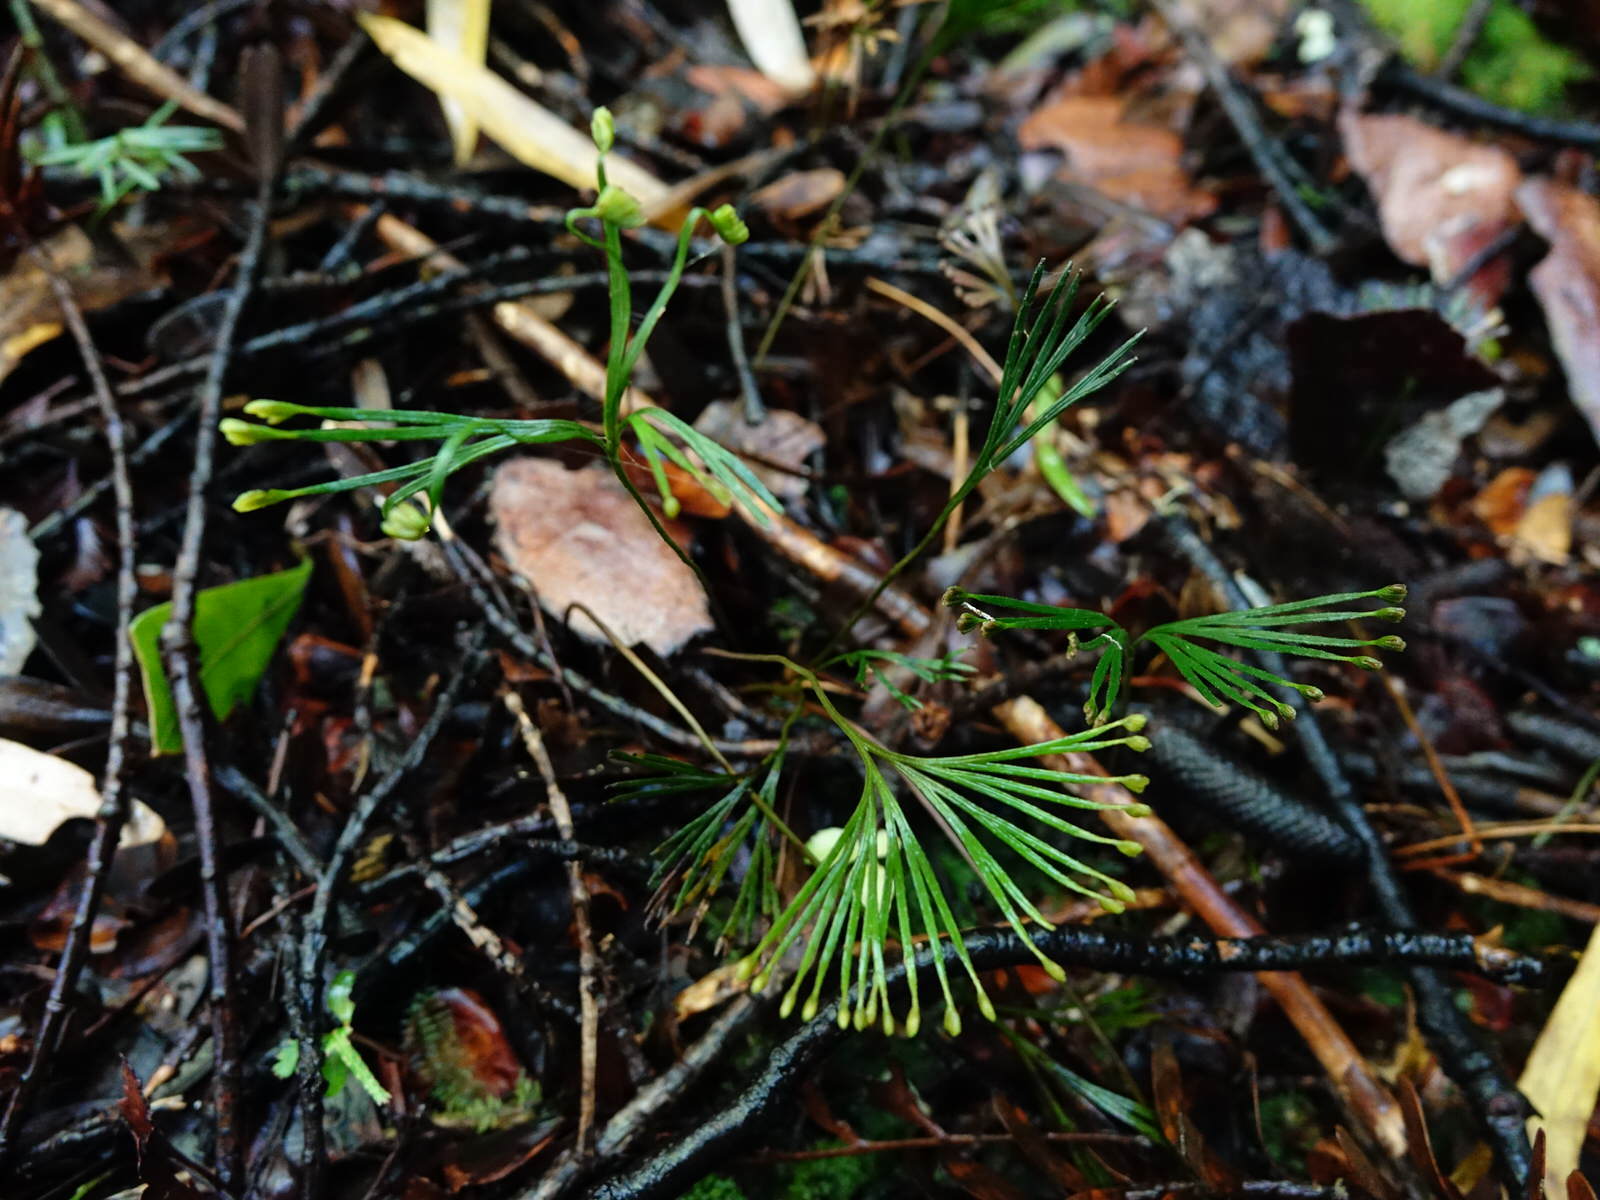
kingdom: Plantae
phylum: Tracheophyta
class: Polypodiopsida
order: Schizaeales
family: Schizaeaceae
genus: Schizaea
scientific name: Schizaea dichotoma
